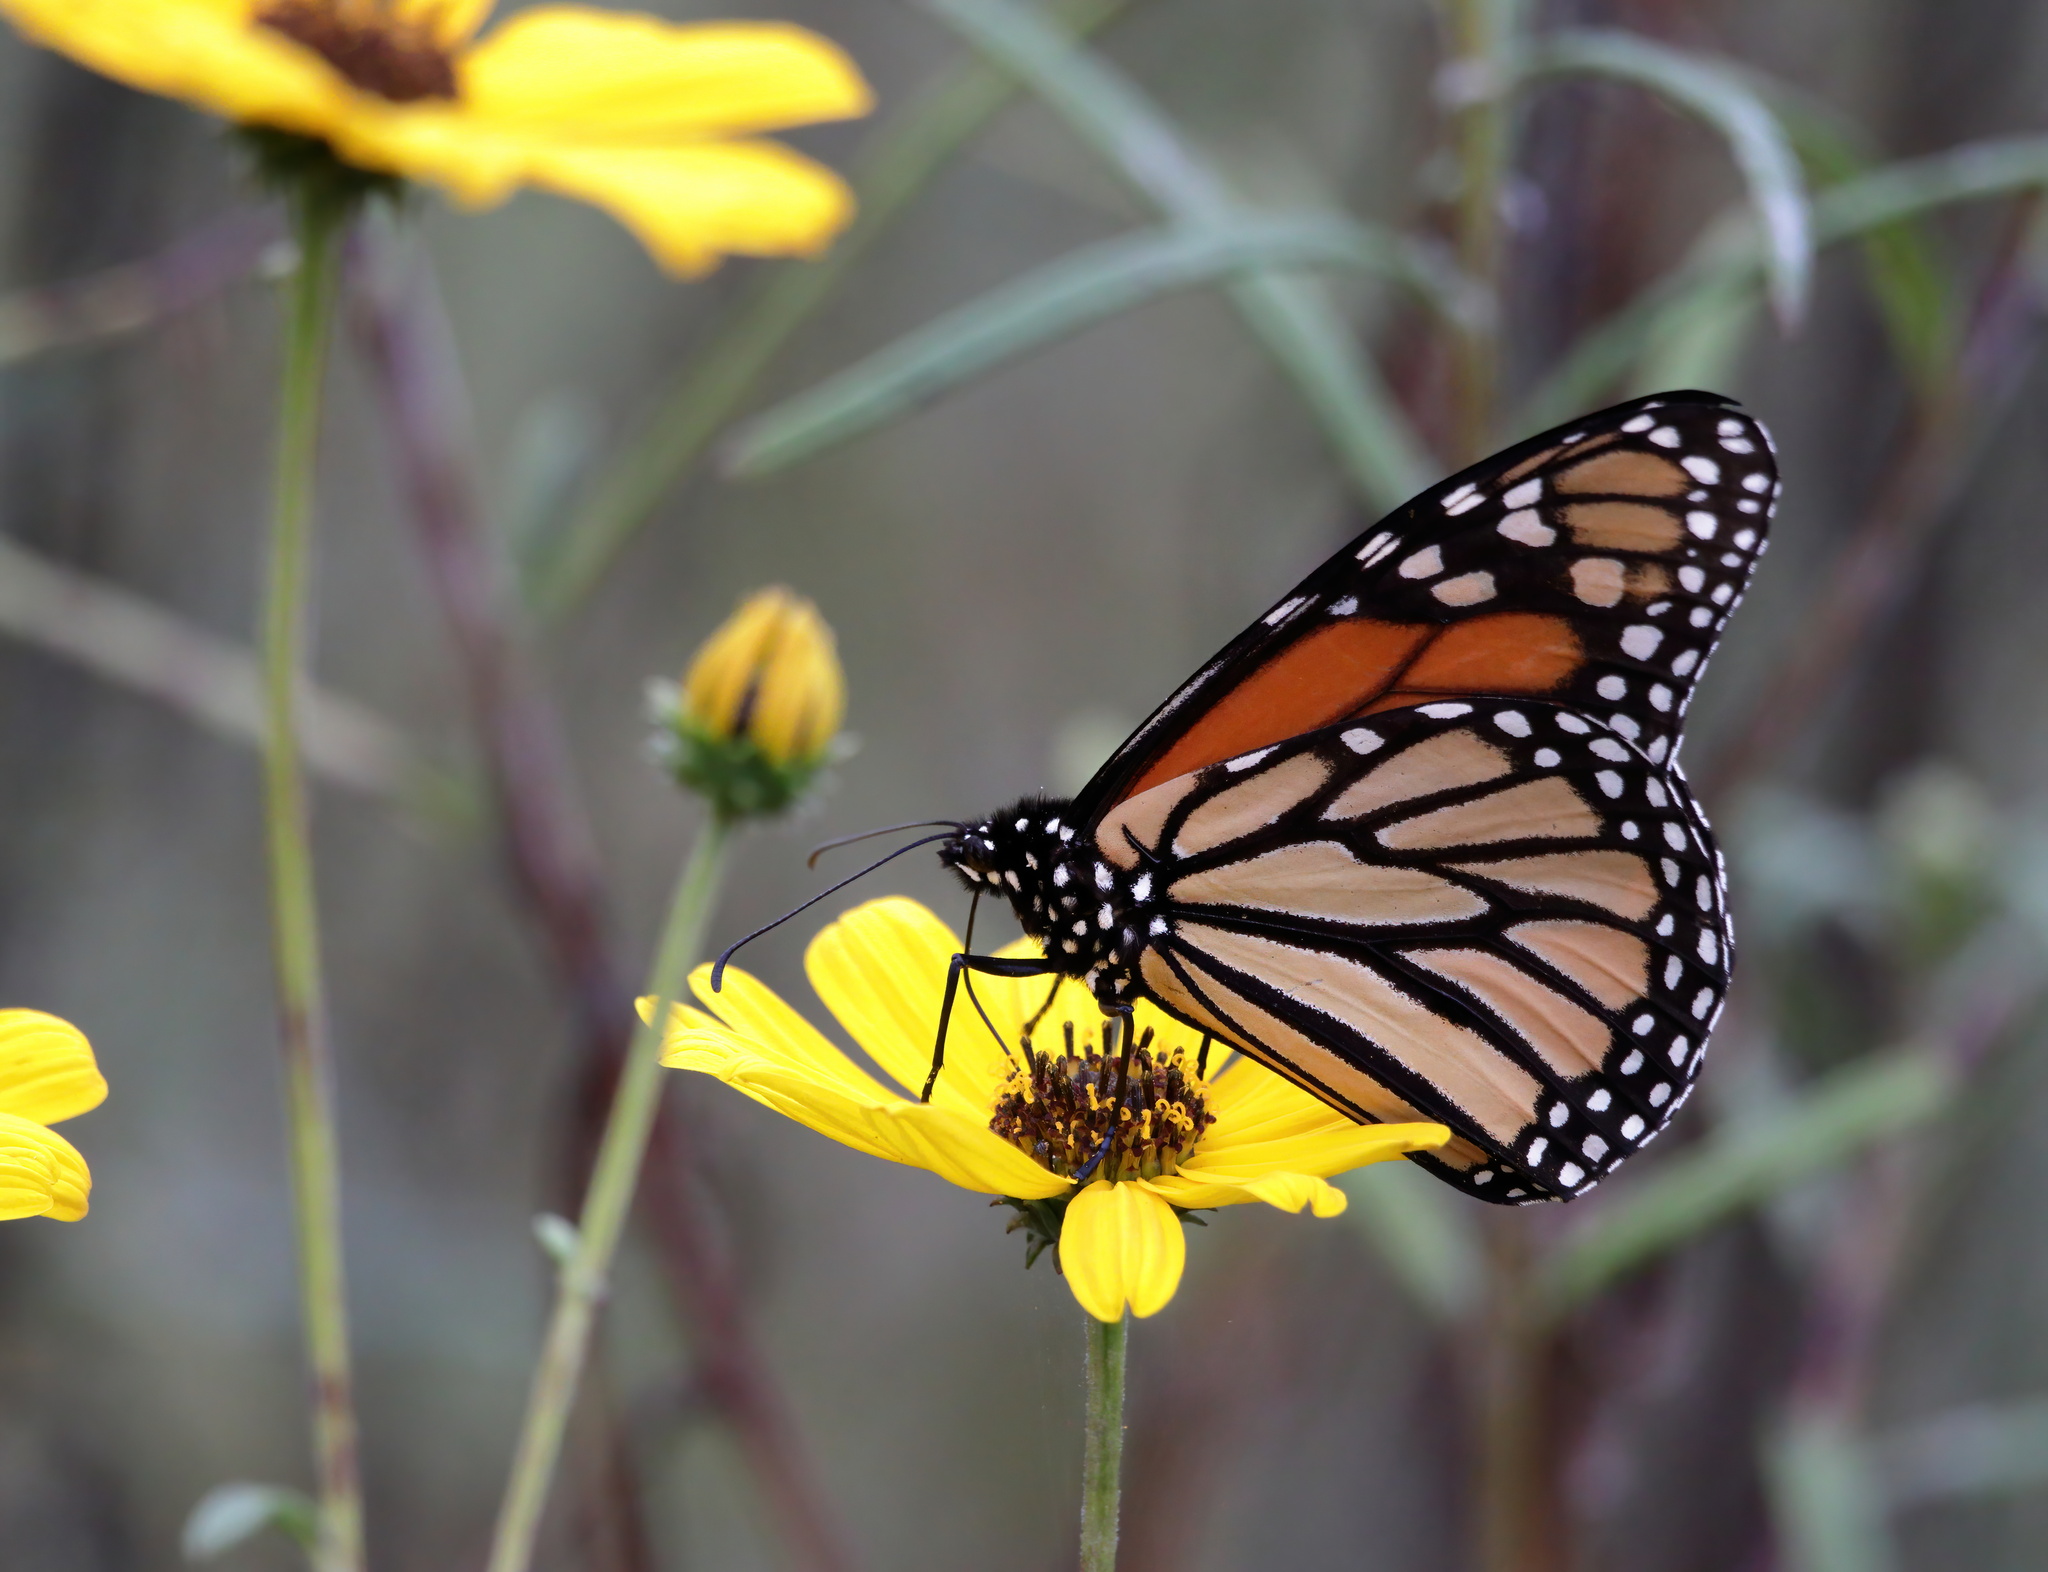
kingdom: Animalia
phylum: Arthropoda
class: Insecta
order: Lepidoptera
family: Nymphalidae
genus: Danaus
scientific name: Danaus plexippus
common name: Monarch
